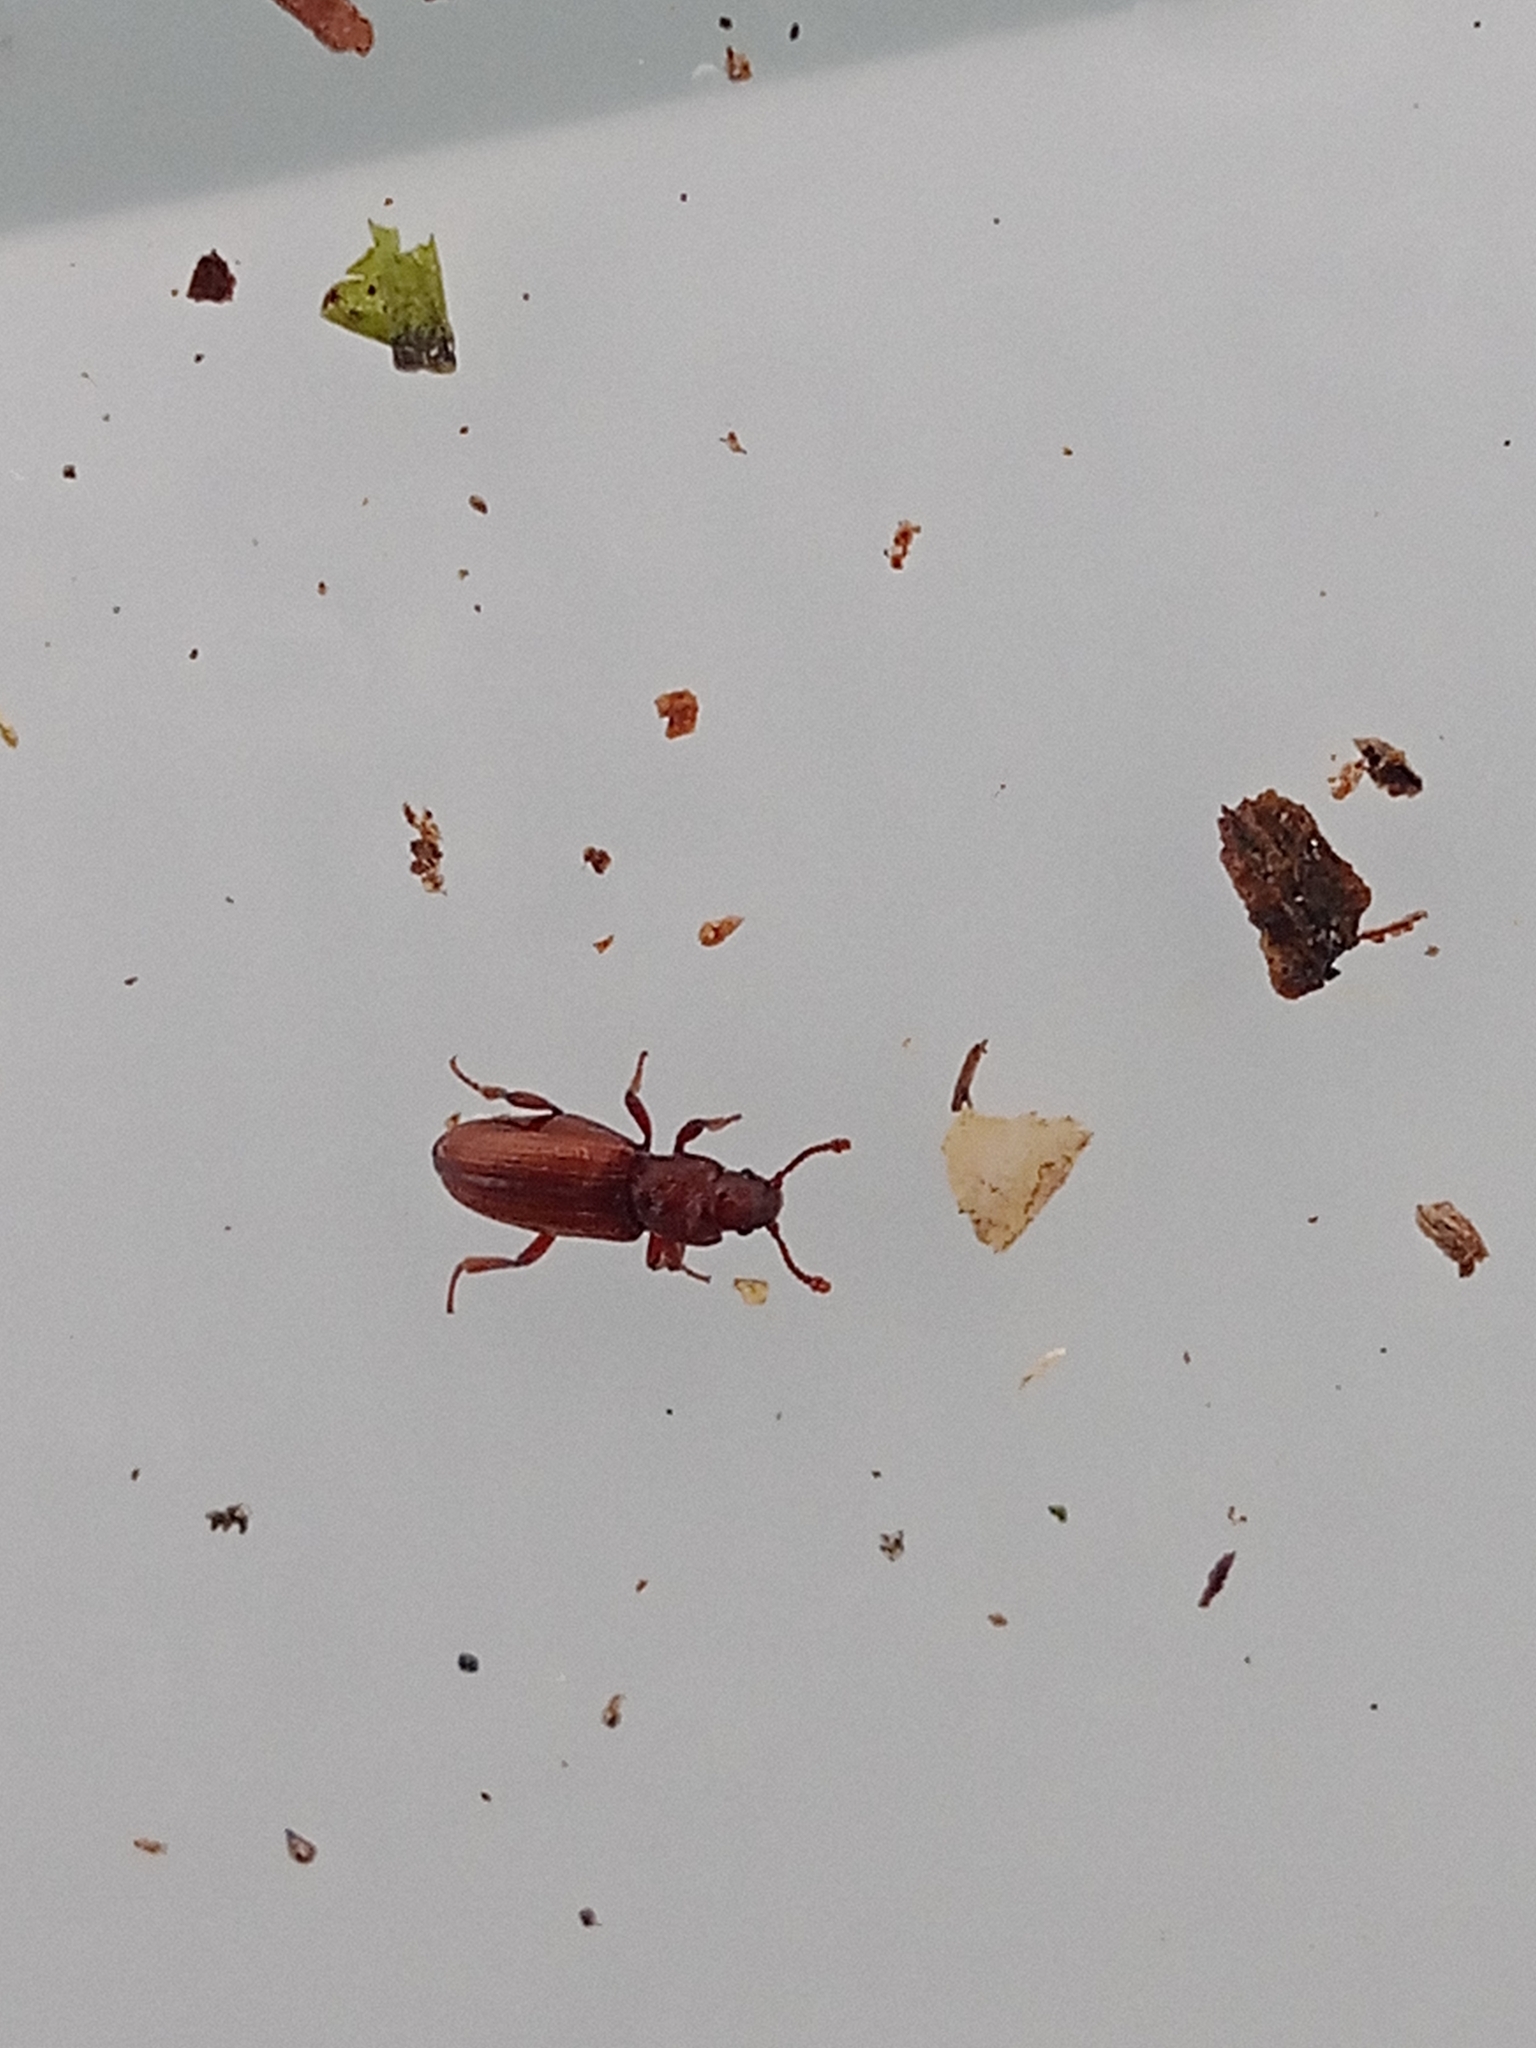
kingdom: Animalia
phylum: Arthropoda
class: Insecta
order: Coleoptera
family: Bothrideridae
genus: Bothrideres
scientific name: Bothrideres bipunctatus
